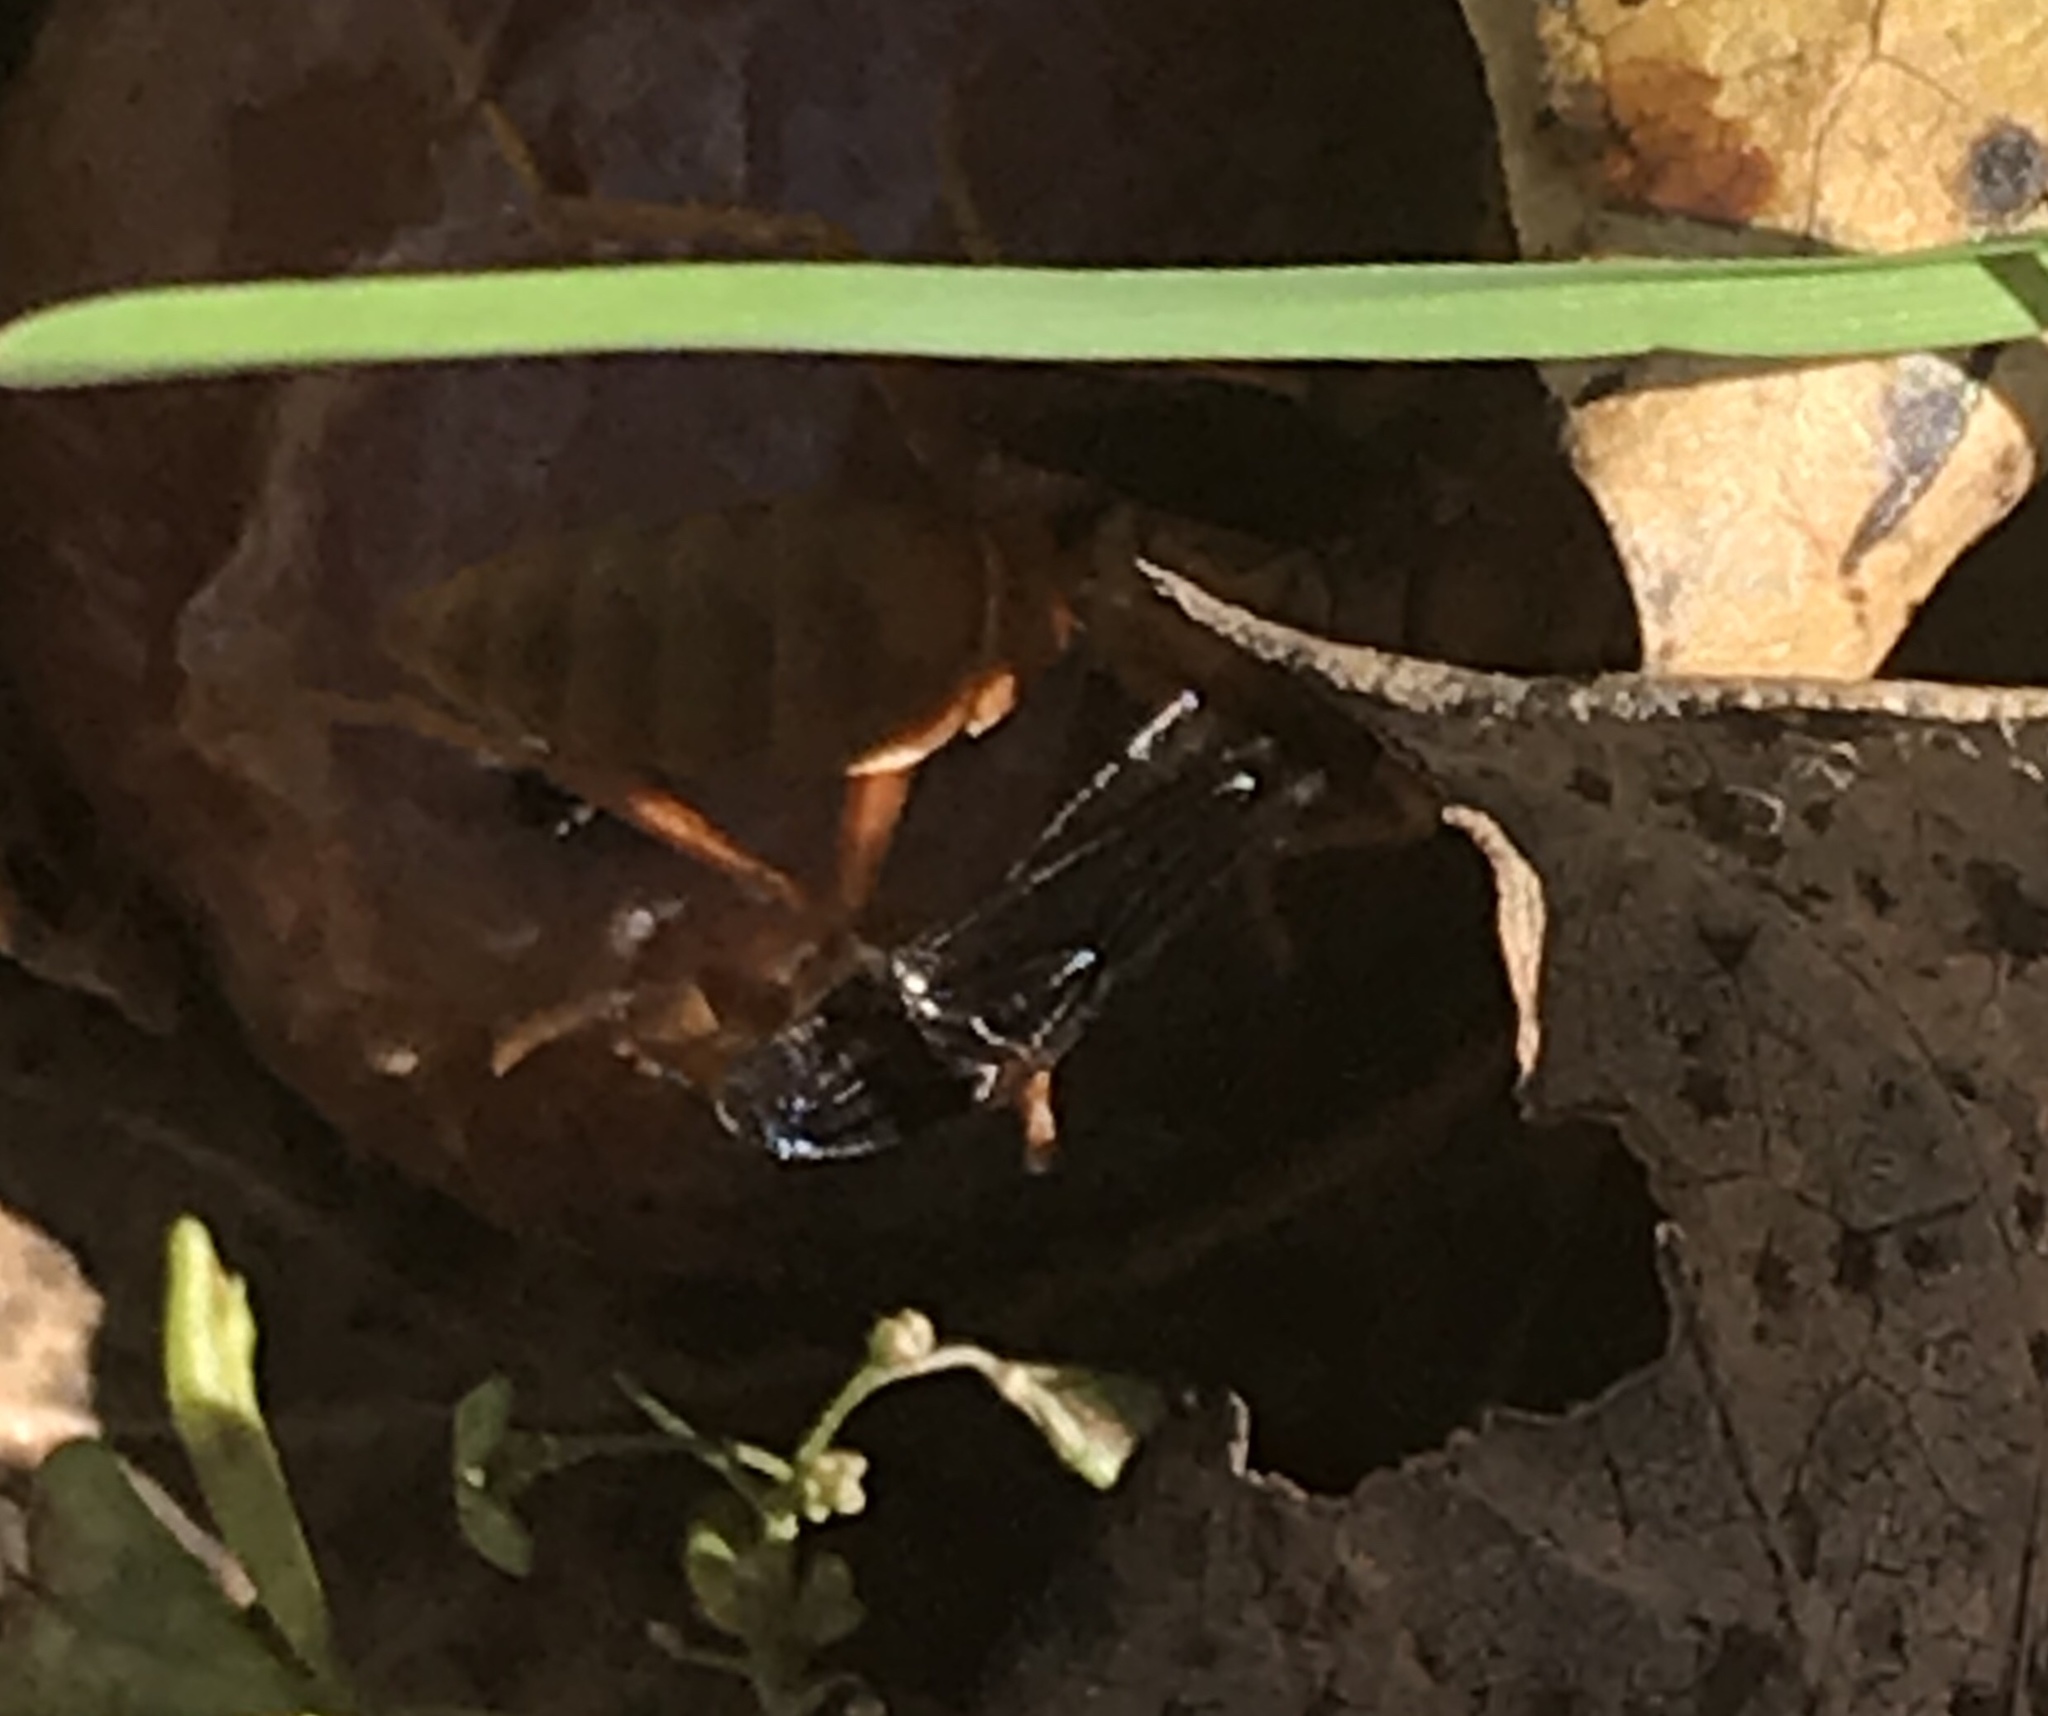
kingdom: Animalia
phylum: Arthropoda
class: Insecta
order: Hymenoptera
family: Eumenidae
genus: Polistes
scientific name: Polistes carolina
